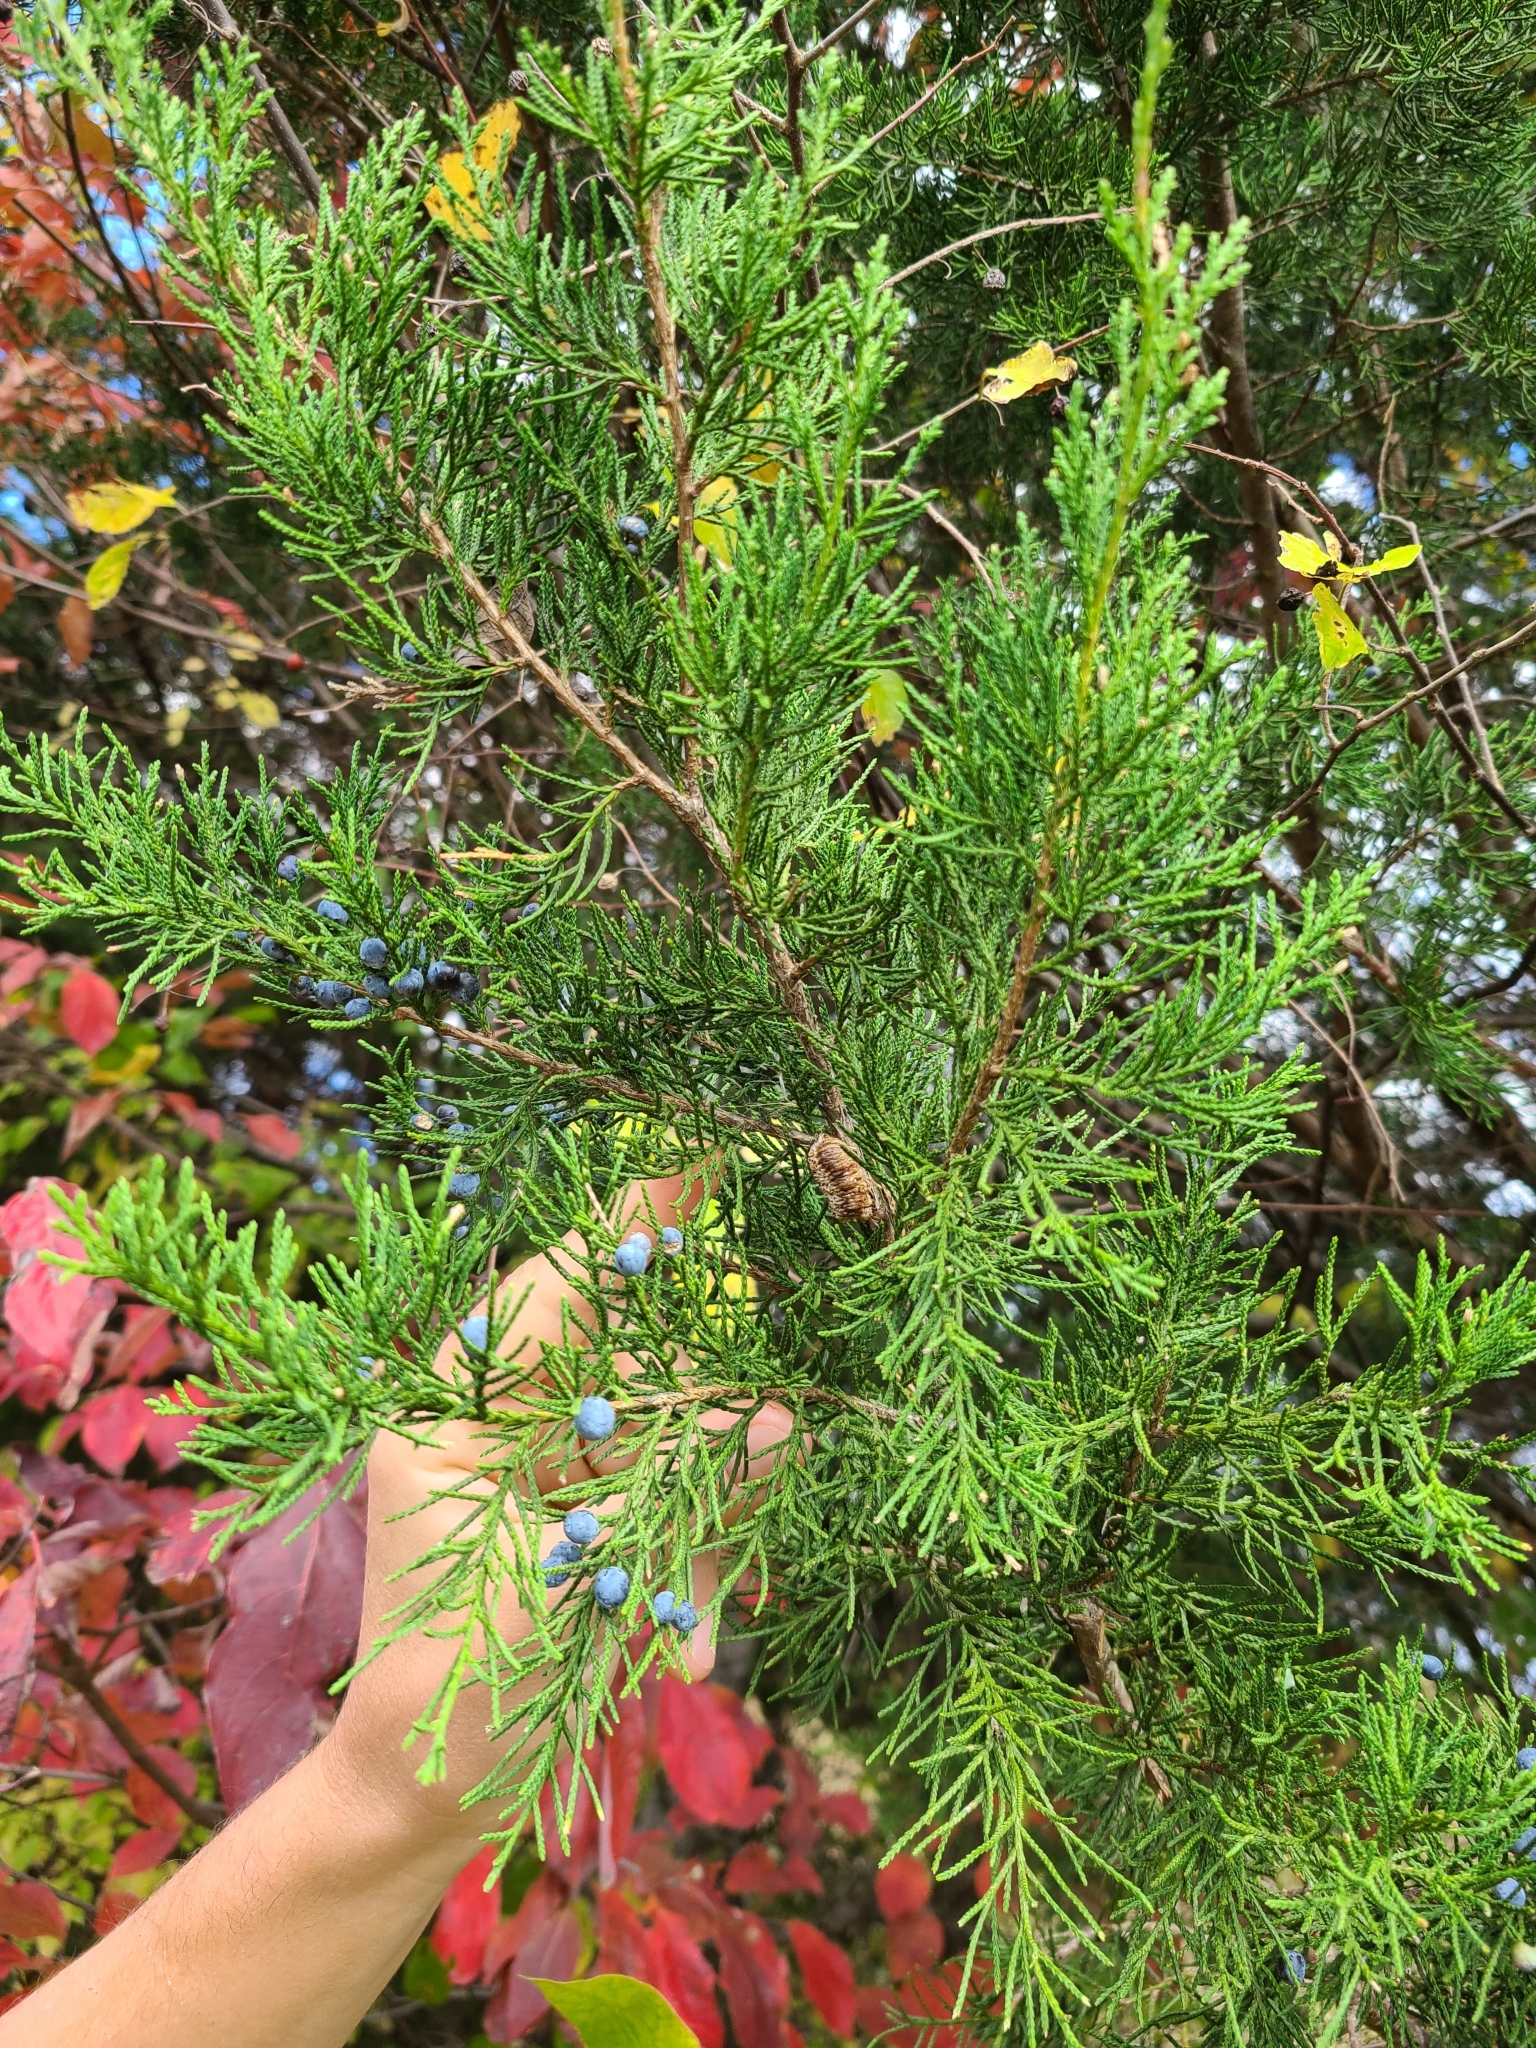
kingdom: Plantae
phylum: Tracheophyta
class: Pinopsida
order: Pinales
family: Cupressaceae
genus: Juniperus
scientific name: Juniperus virginiana
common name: Red juniper
